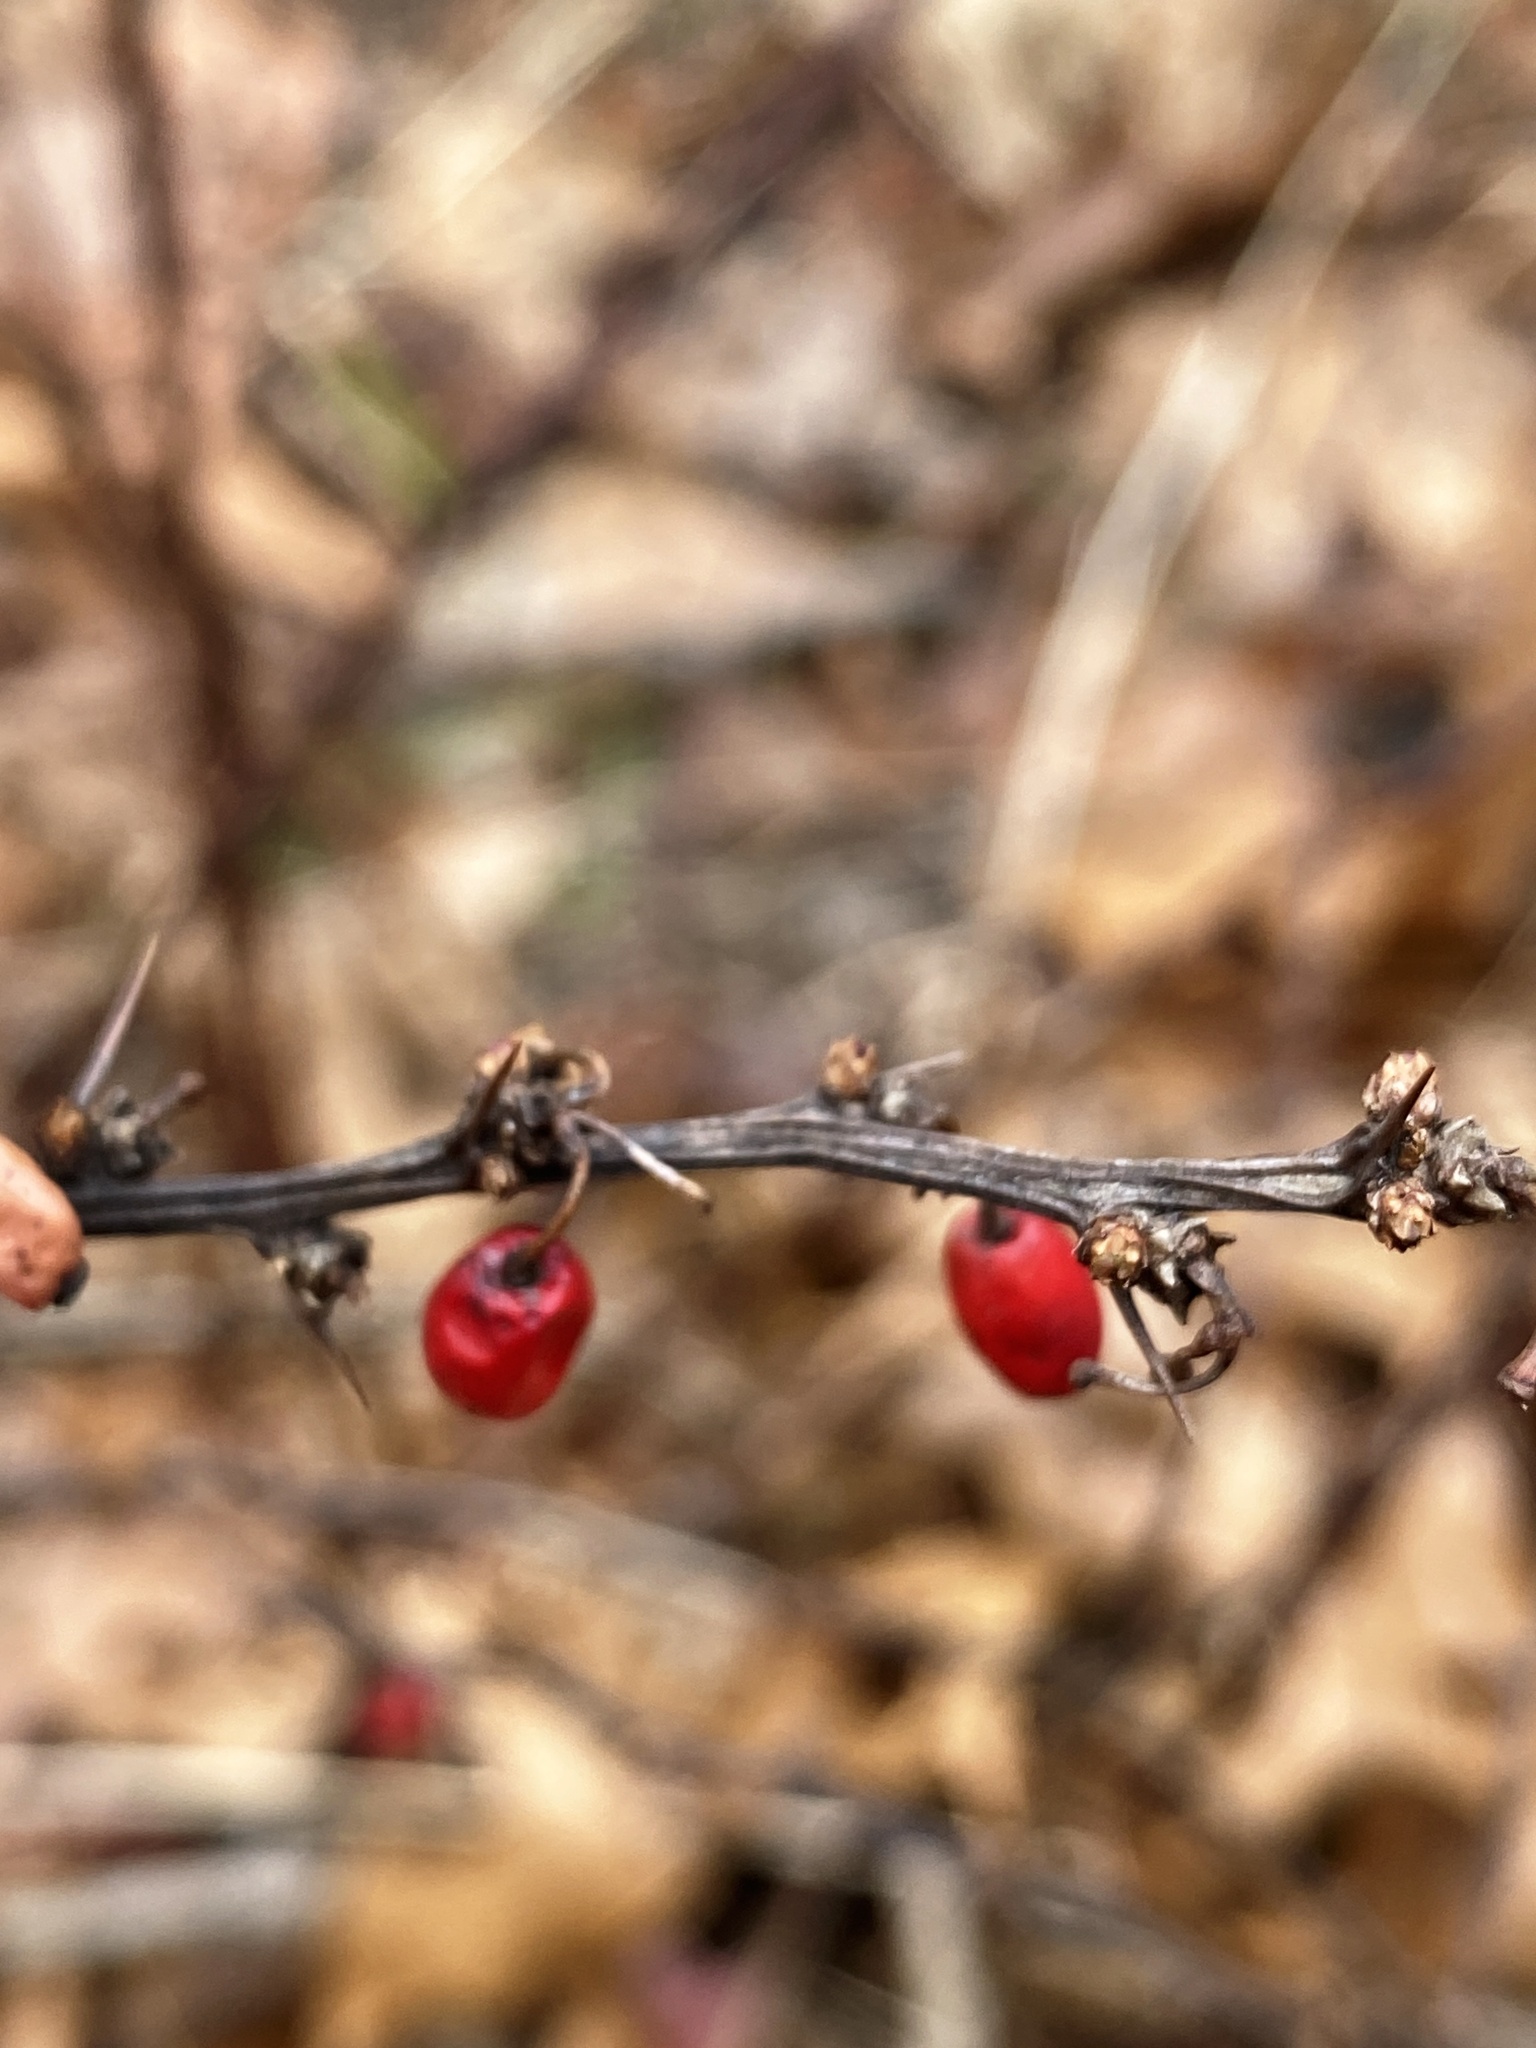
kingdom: Plantae
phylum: Tracheophyta
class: Magnoliopsida
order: Ranunculales
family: Berberidaceae
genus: Berberis
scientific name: Berberis thunbergii
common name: Japanese barberry
